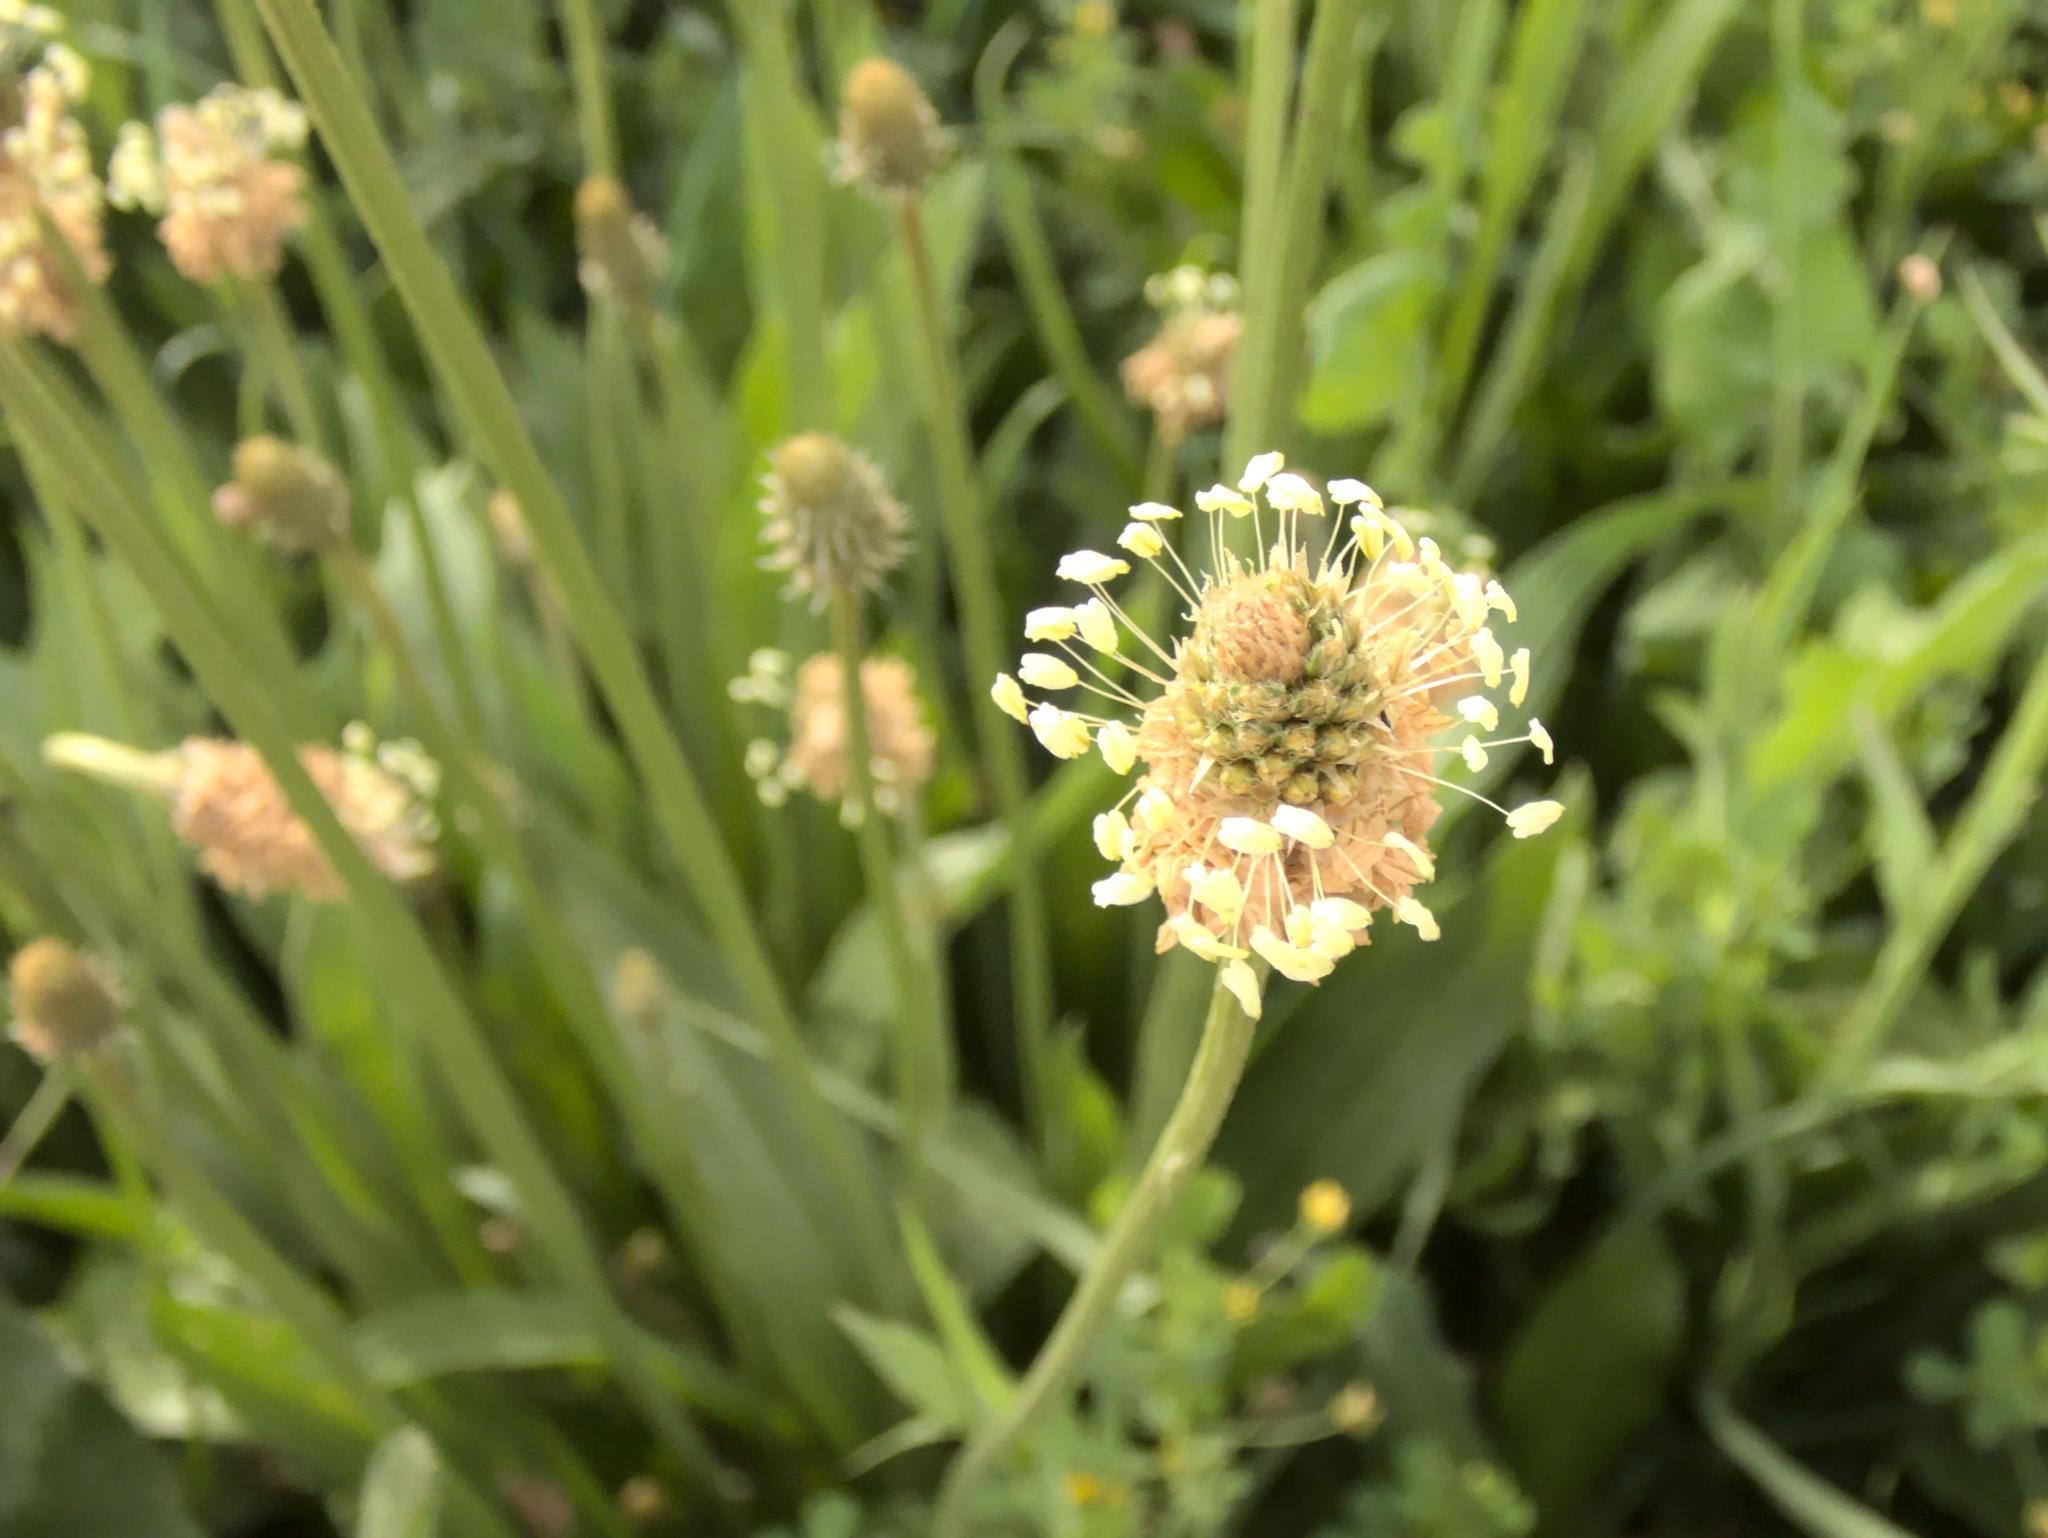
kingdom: Plantae
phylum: Tracheophyta
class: Magnoliopsida
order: Lamiales
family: Plantaginaceae
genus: Plantago
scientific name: Plantago lanceolata
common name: Ribwort plantain
